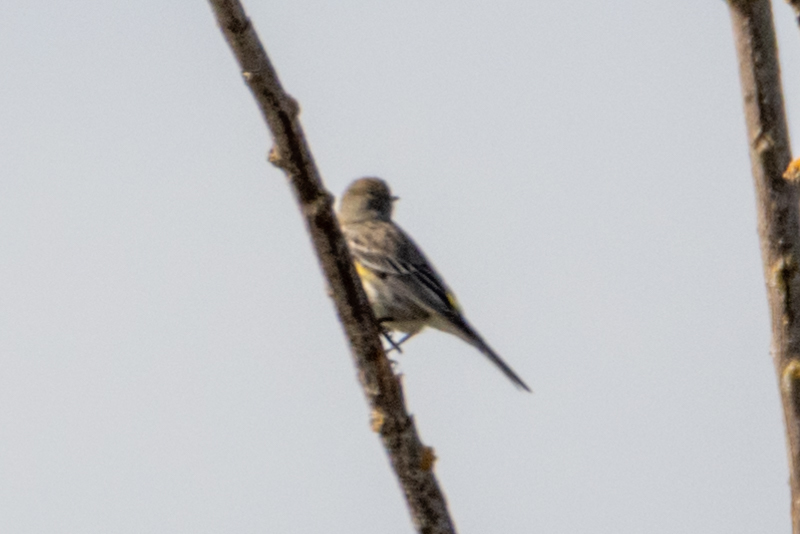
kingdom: Animalia
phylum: Chordata
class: Aves
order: Passeriformes
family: Parulidae
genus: Setophaga
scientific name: Setophaga coronata
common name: Myrtle warbler
